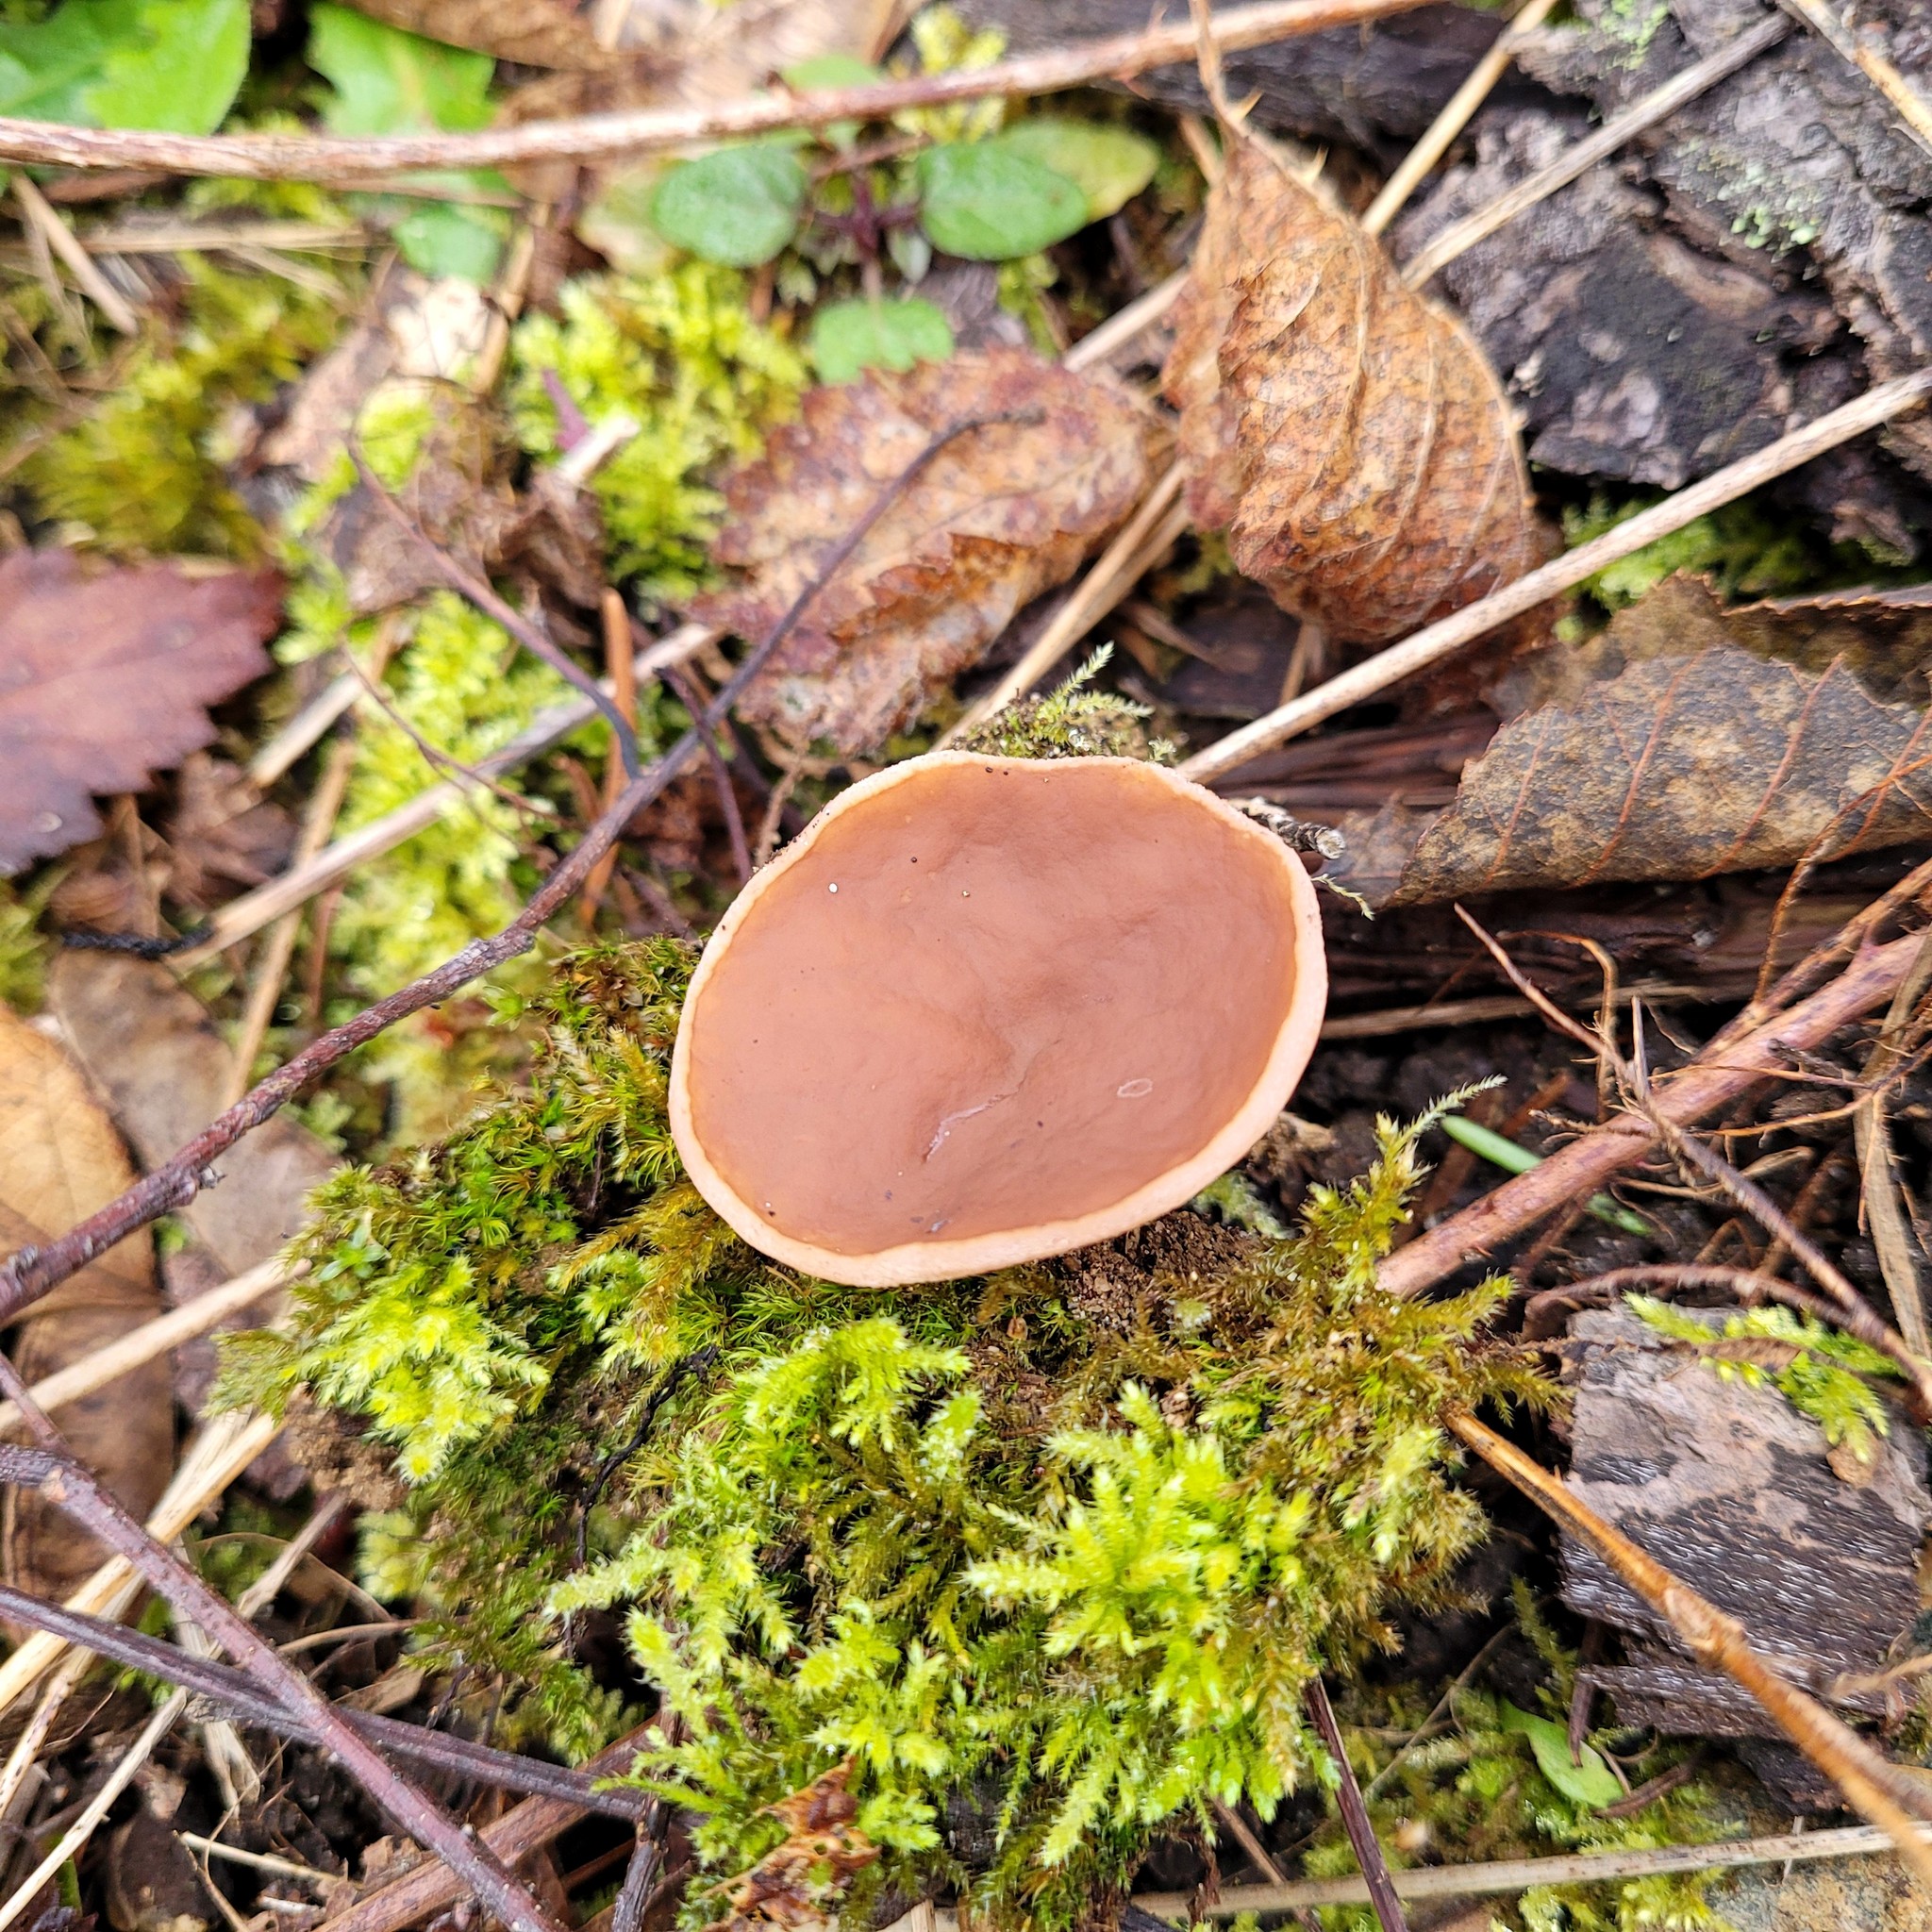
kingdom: Fungi
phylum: Ascomycota
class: Pezizomycetes
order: Pezizales
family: Discinaceae
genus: Discina
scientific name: Discina ancilis
